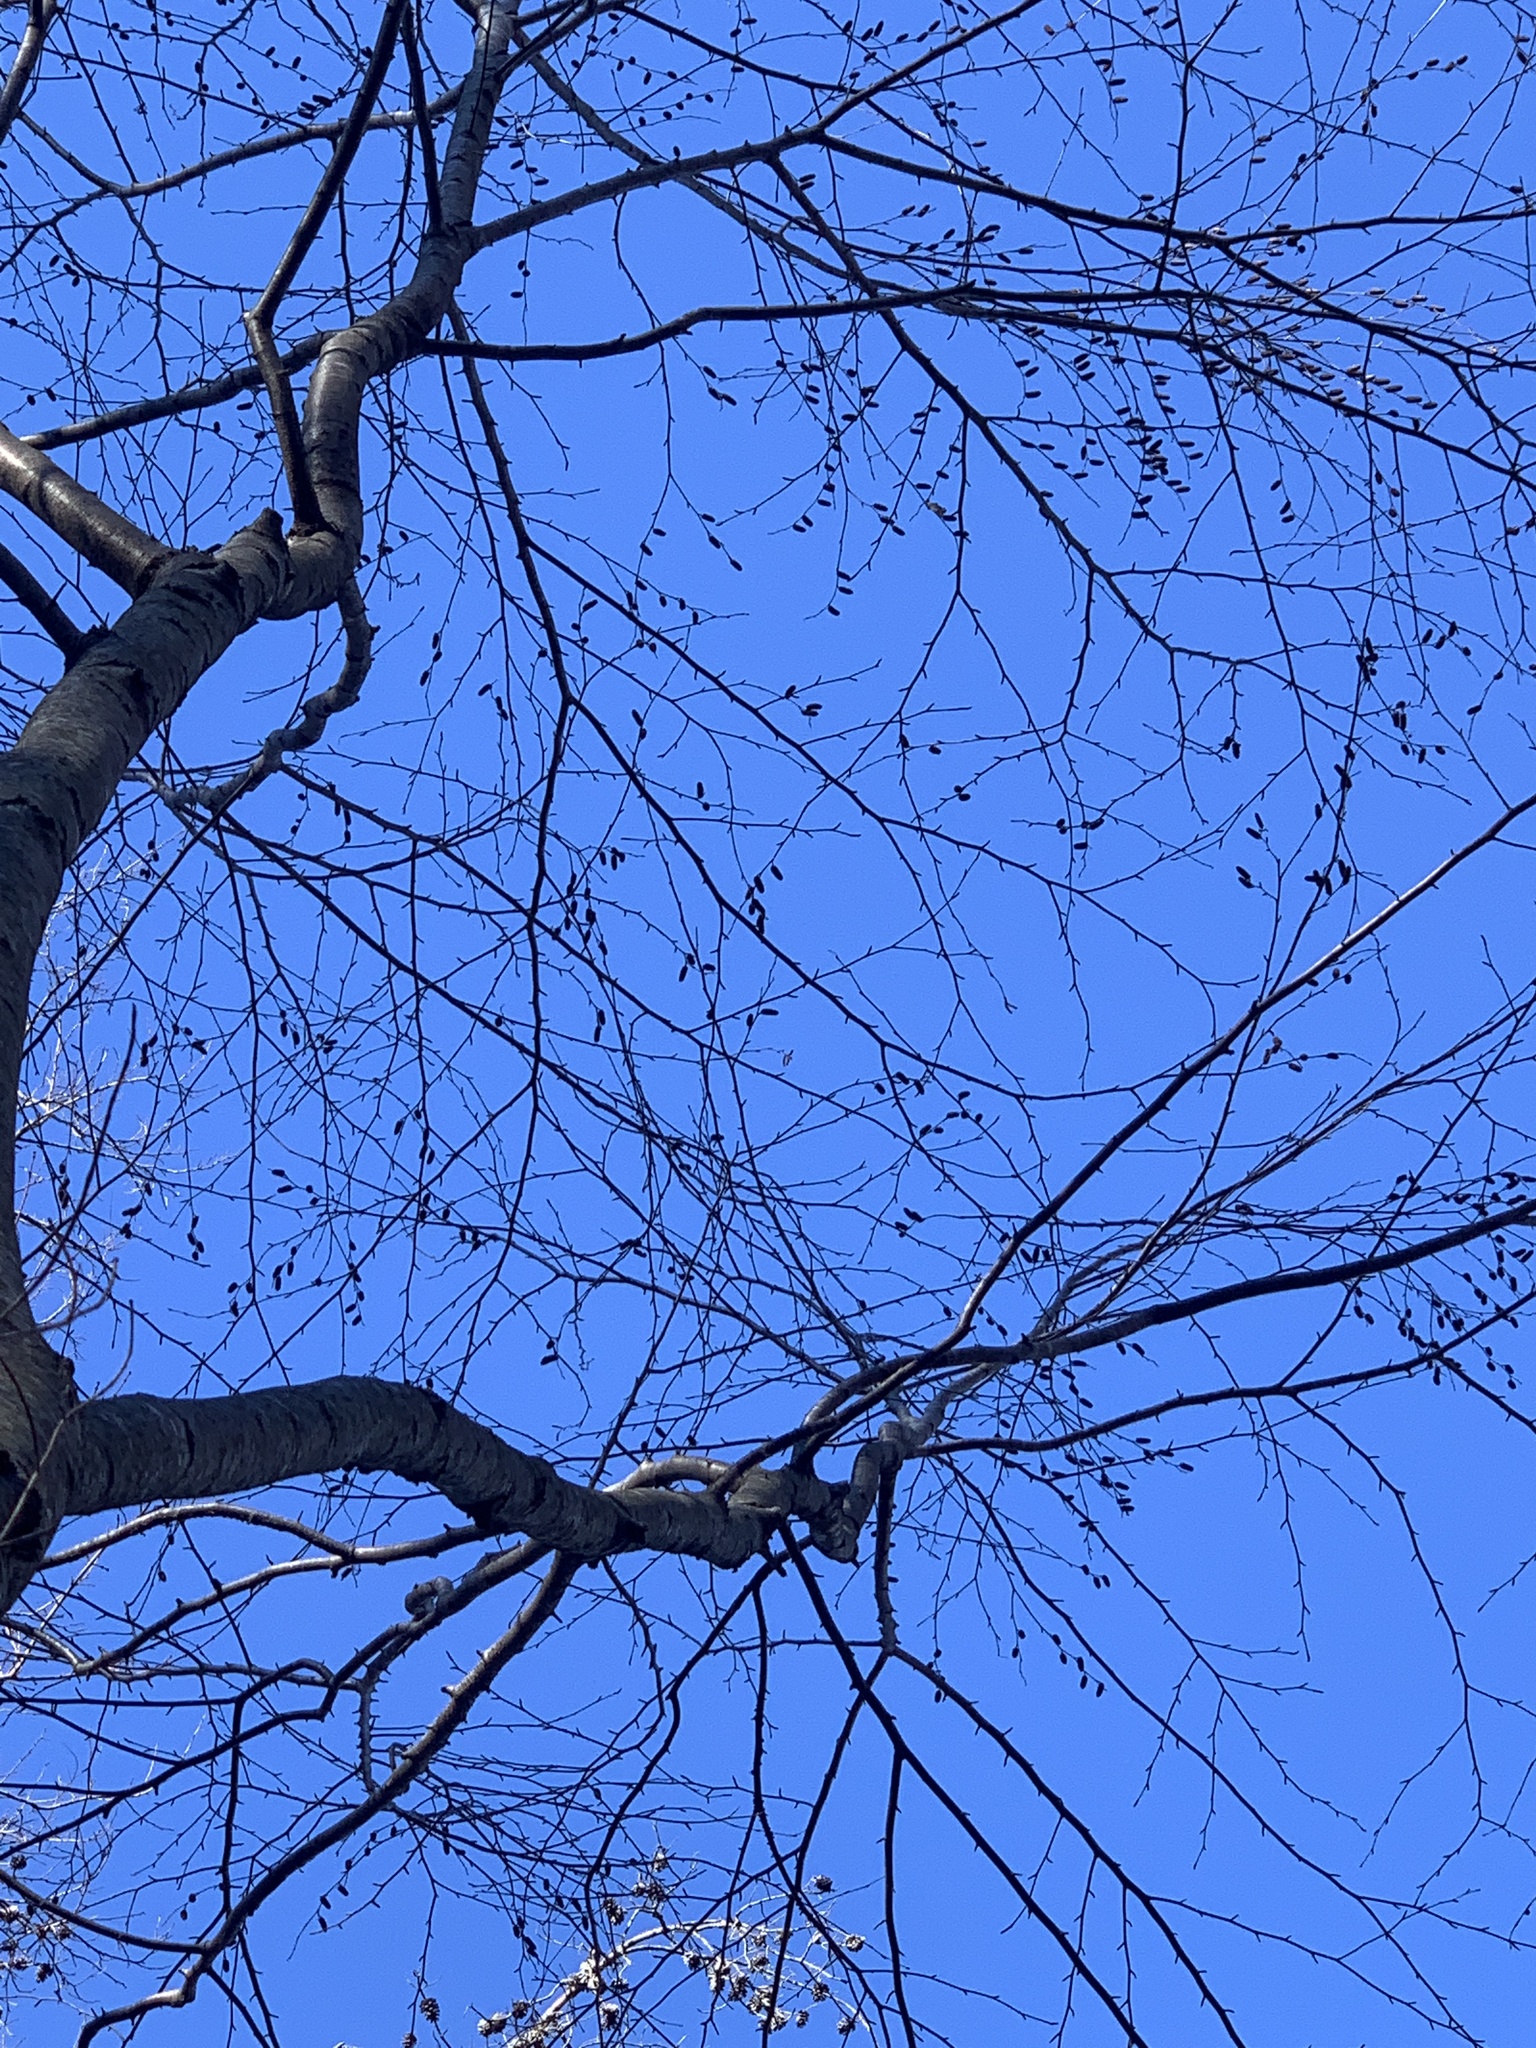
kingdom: Plantae
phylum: Tracheophyta
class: Magnoliopsida
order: Fagales
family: Betulaceae
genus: Betula
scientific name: Betula lenta
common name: Black birch
